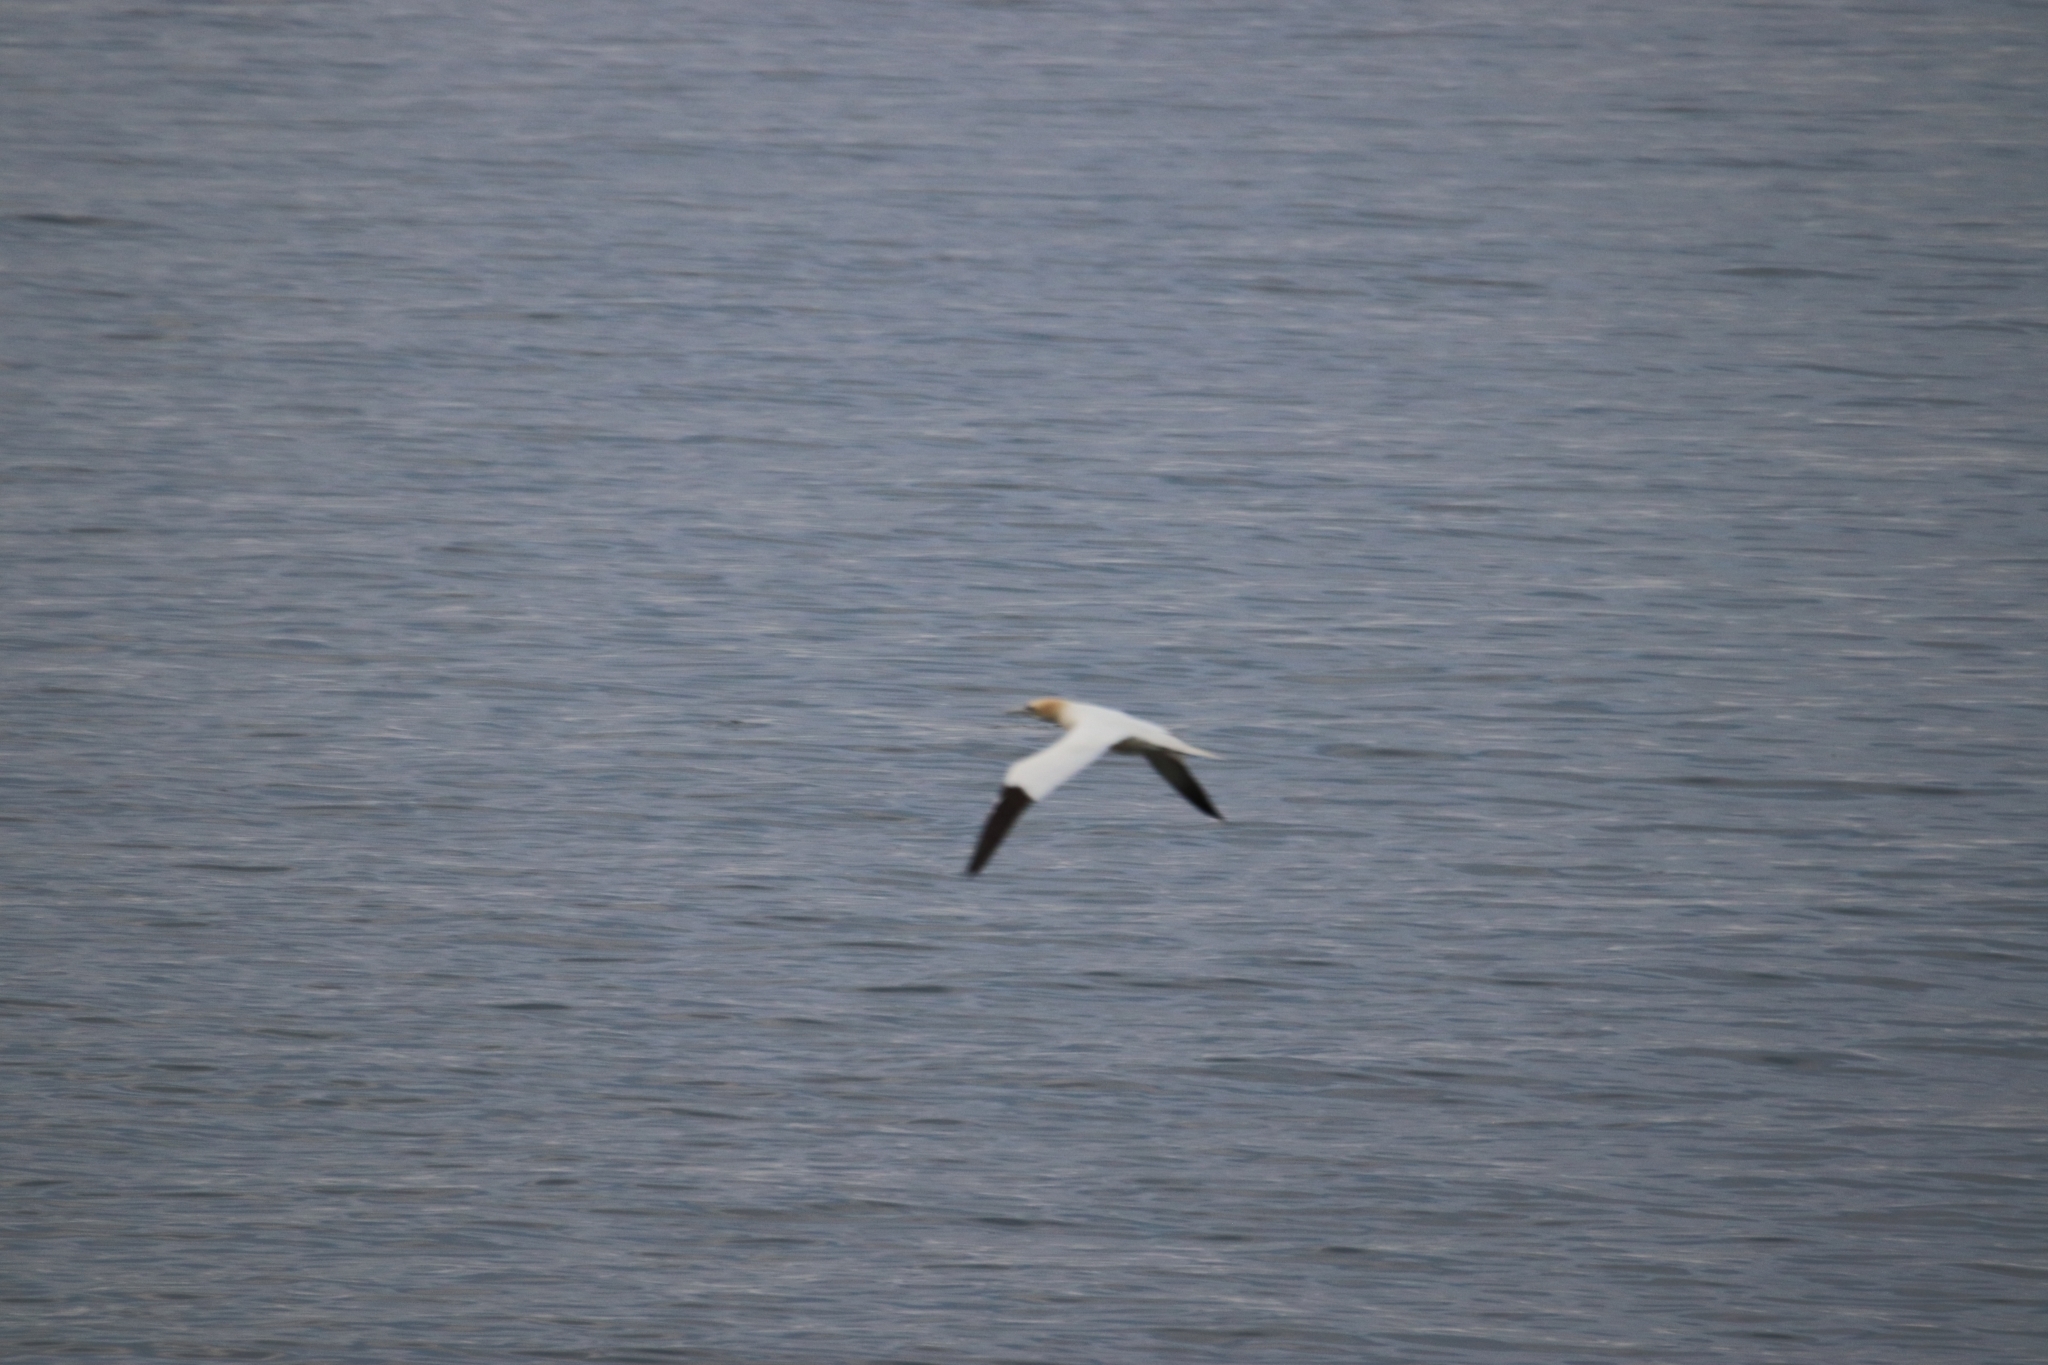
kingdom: Animalia
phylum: Chordata
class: Aves
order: Suliformes
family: Sulidae
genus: Morus
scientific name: Morus bassanus
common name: Northern gannet
